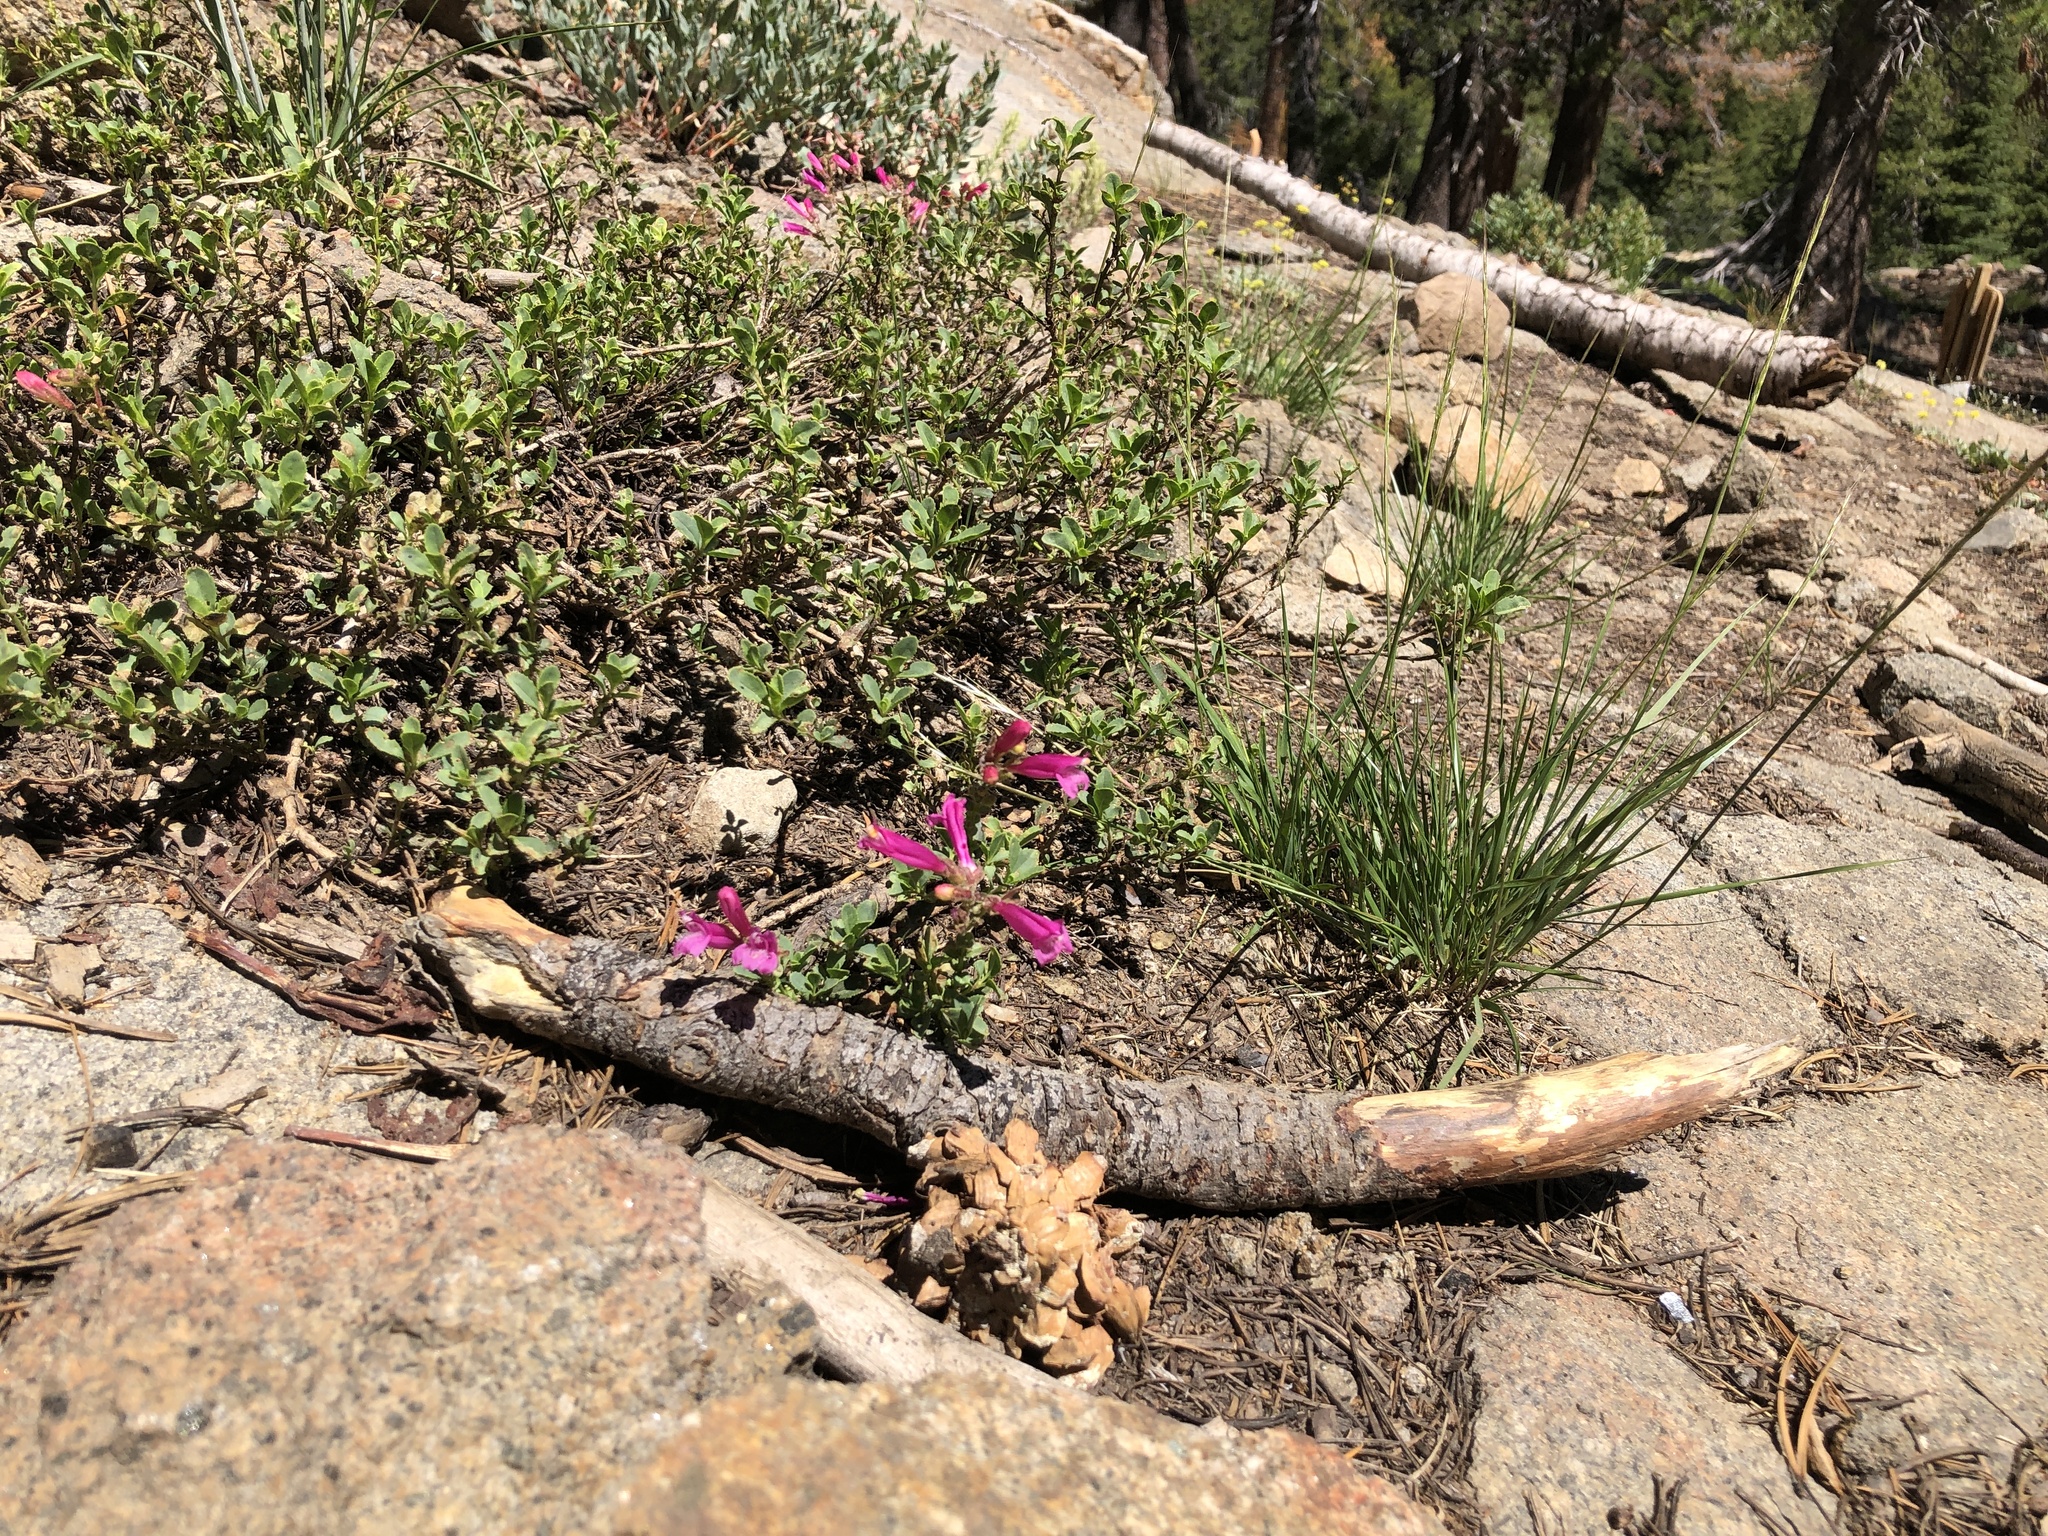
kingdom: Plantae
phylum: Tracheophyta
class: Magnoliopsida
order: Lamiales
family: Plantaginaceae
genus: Penstemon
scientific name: Penstemon newberryi
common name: Mountain-pride
